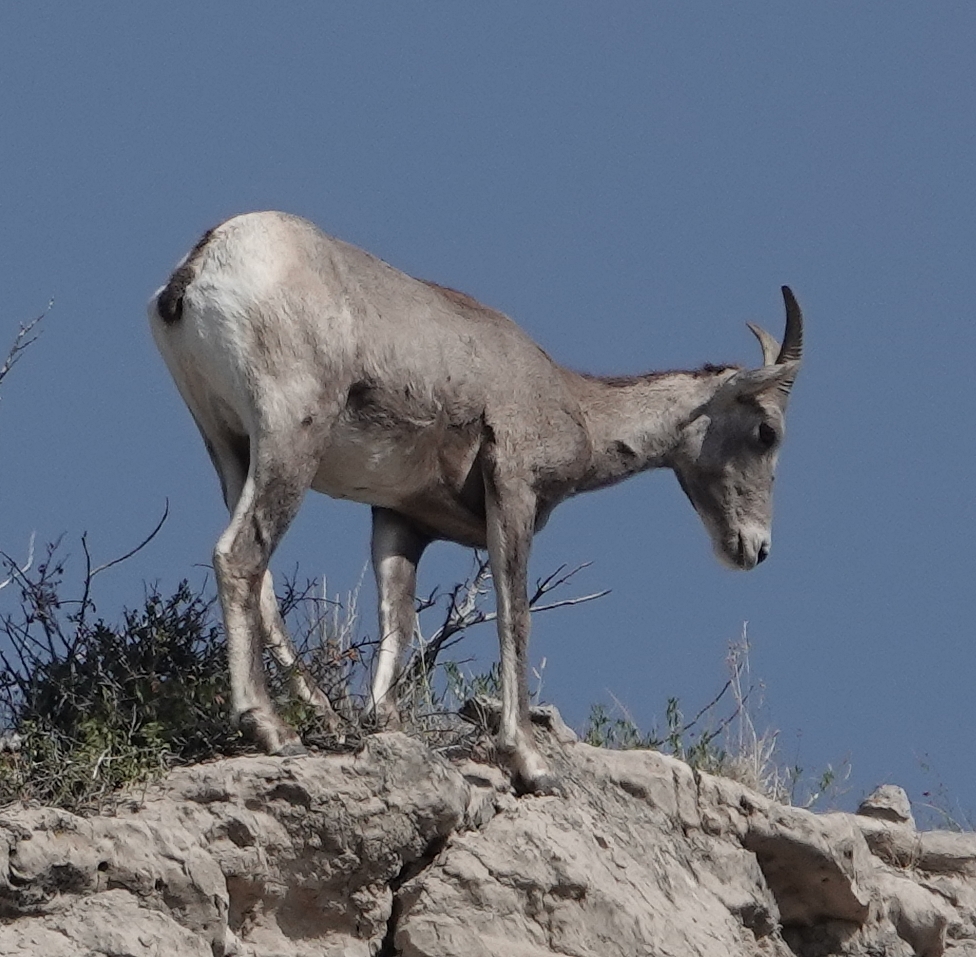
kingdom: Animalia
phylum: Chordata
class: Mammalia
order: Artiodactyla
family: Bovidae
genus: Ovis
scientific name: Ovis canadensis
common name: Bighorn sheep
